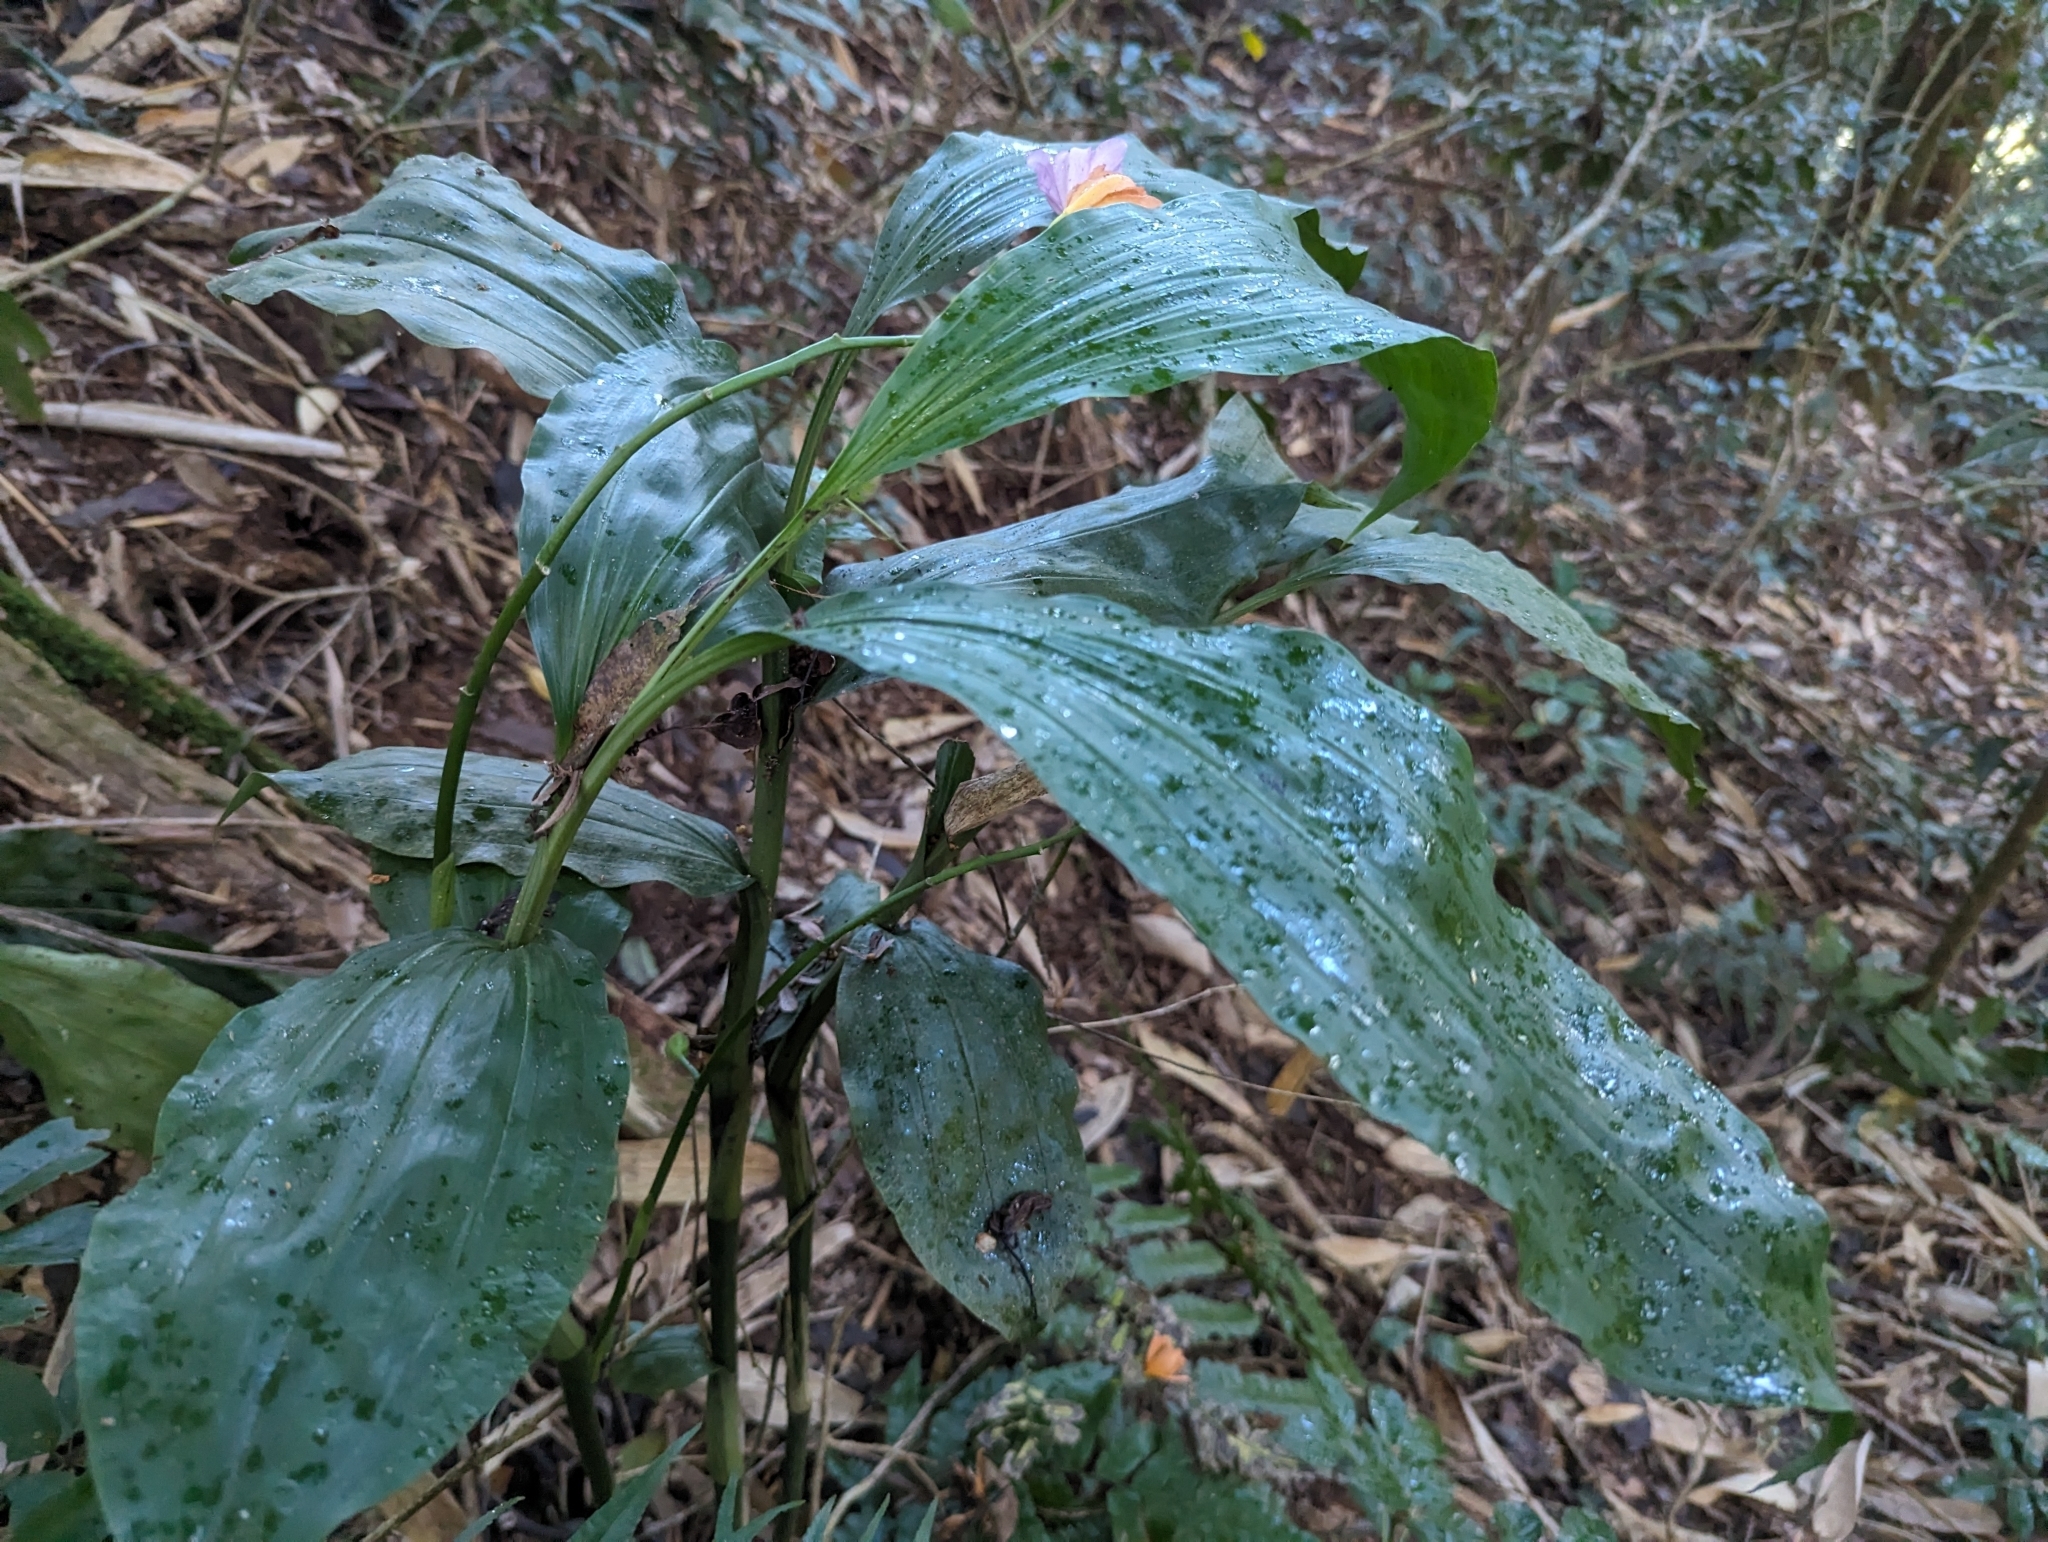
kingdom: Plantae
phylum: Tracheophyta
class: Liliopsida
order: Asparagales
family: Orchidaceae
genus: Calanthe
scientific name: Calanthe mishmensis
